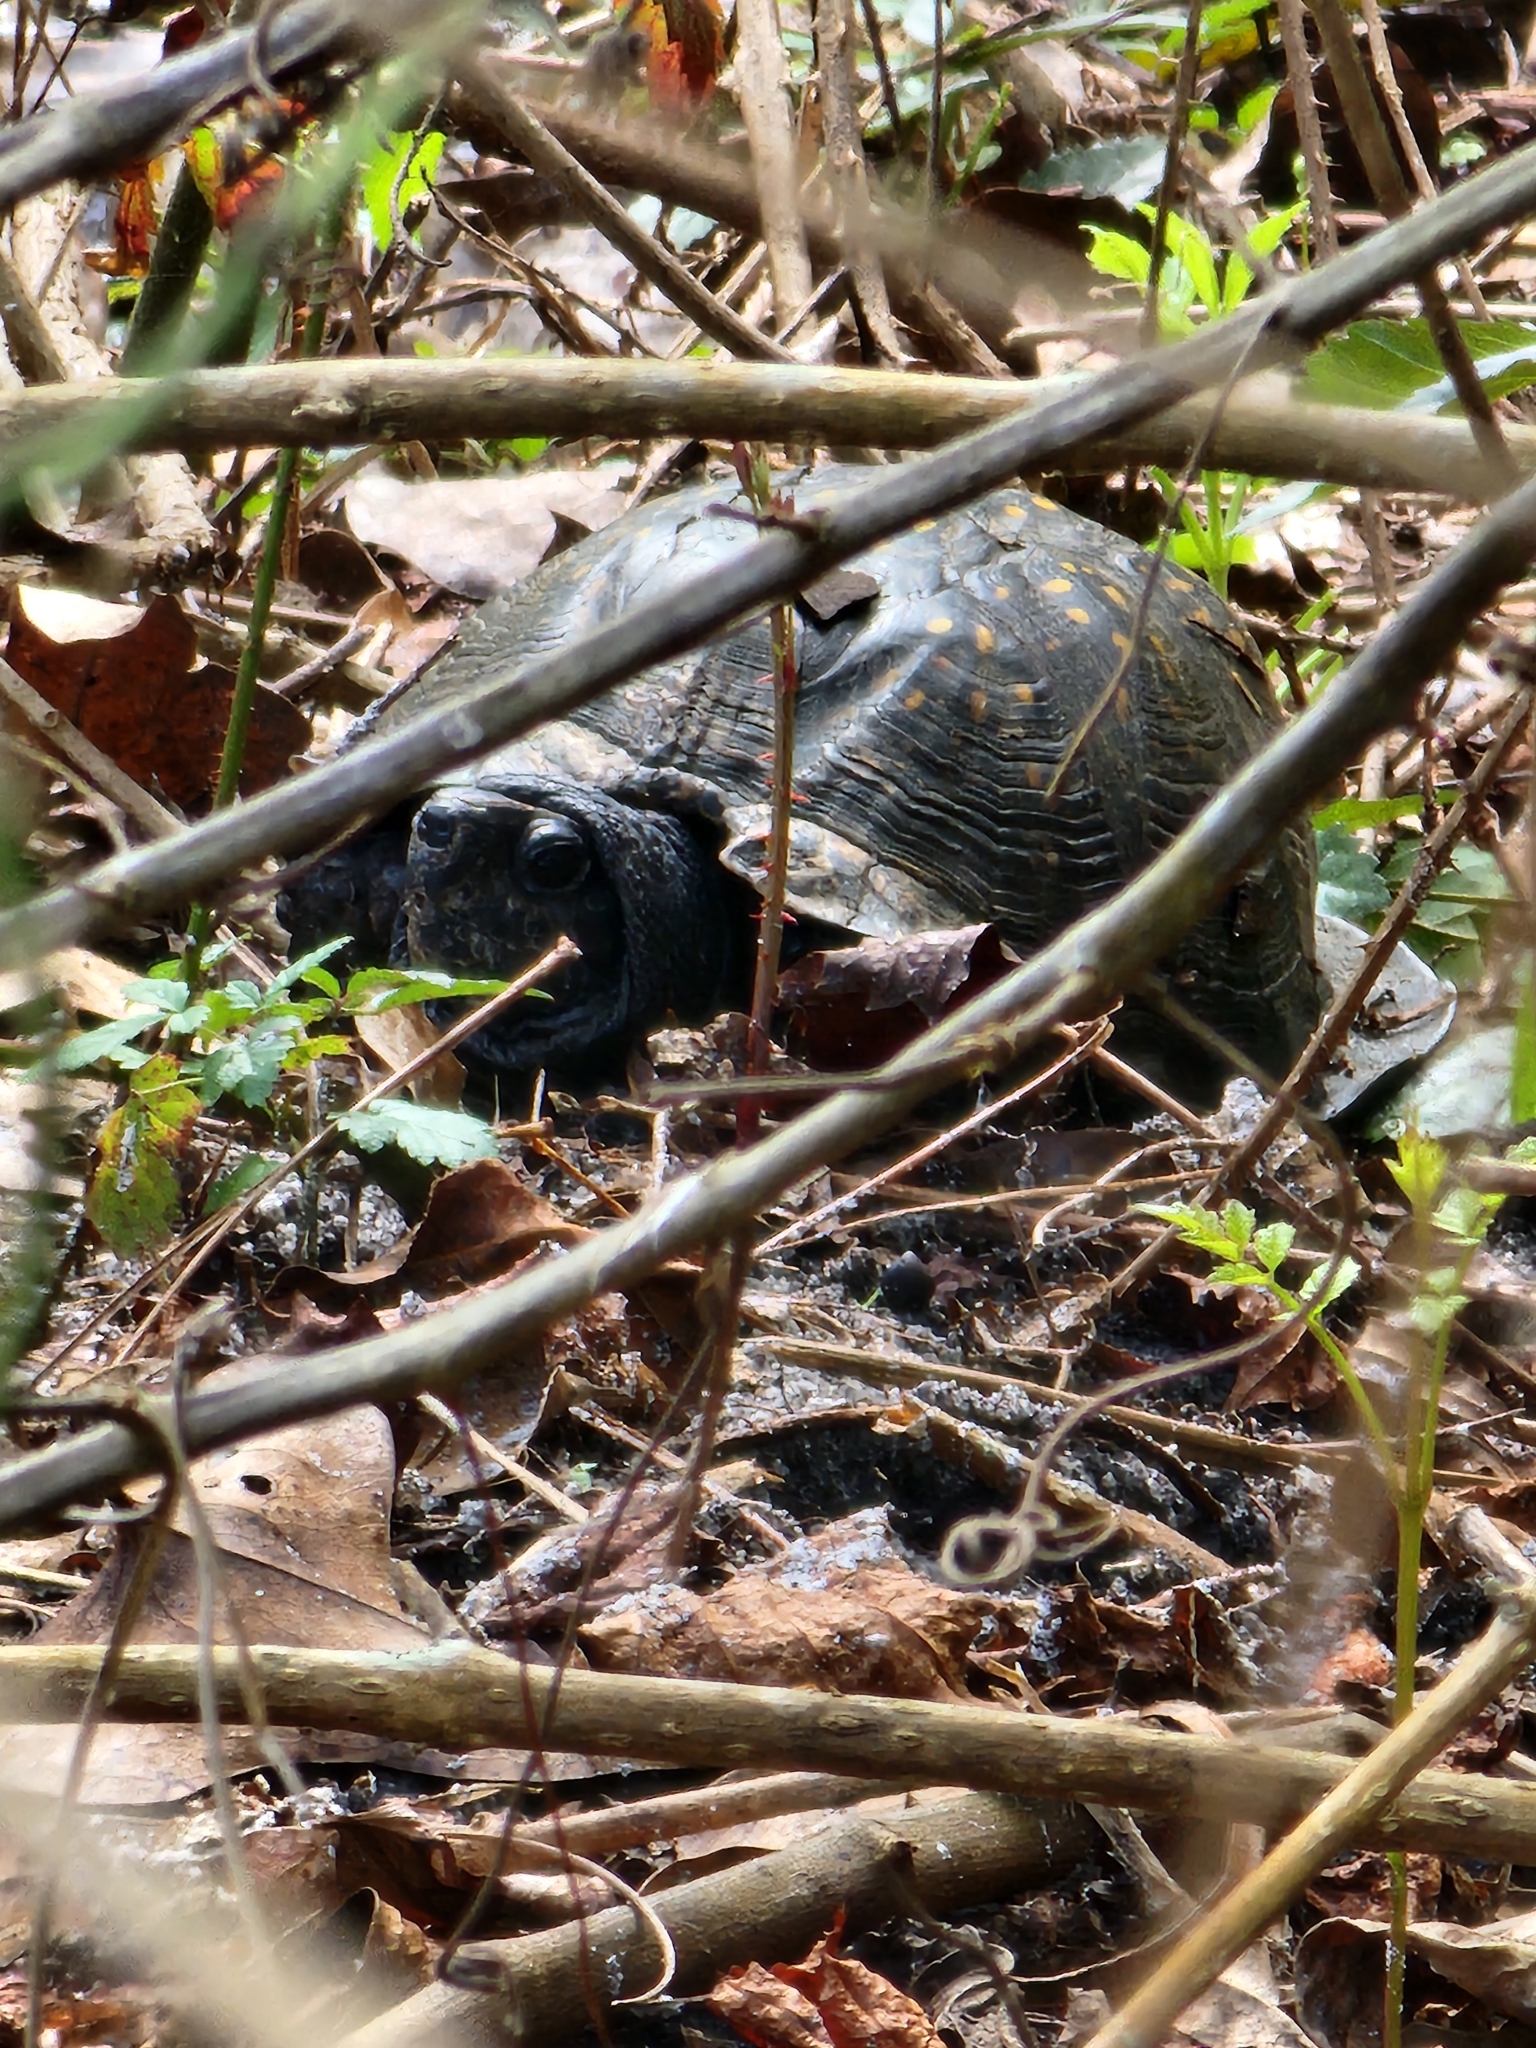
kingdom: Animalia
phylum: Chordata
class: Testudines
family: Emydidae
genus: Terrapene
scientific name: Terrapene carolina
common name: Common box turtle
